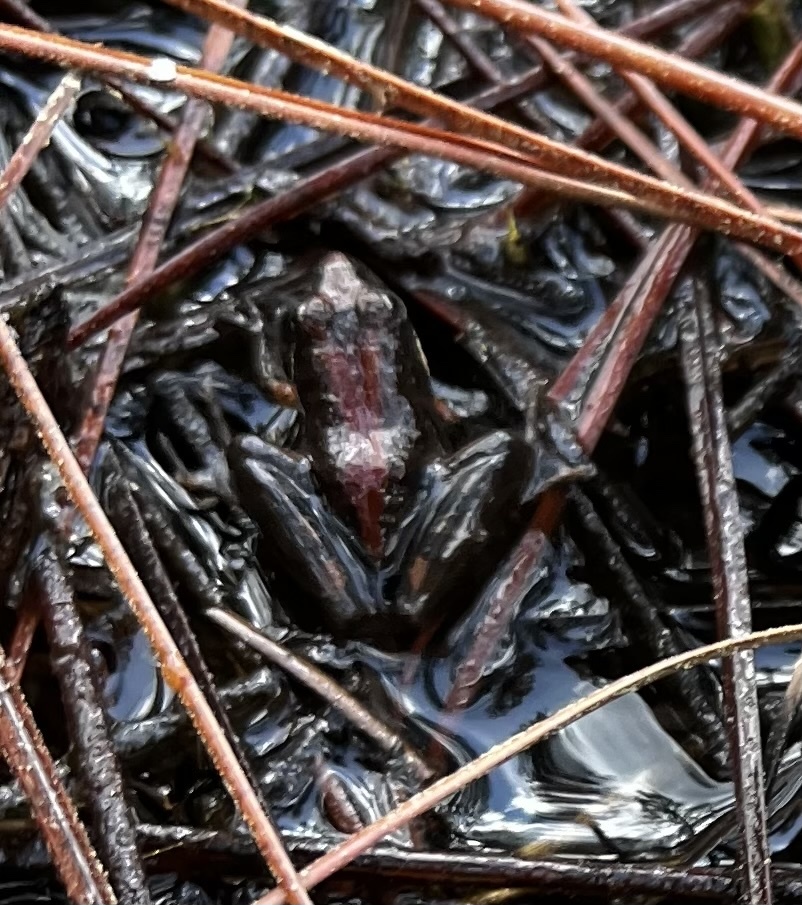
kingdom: Animalia
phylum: Chordata
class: Amphibia
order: Anura
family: Hylidae
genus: Acris
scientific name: Acris gryllus
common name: Southern cricket frog
